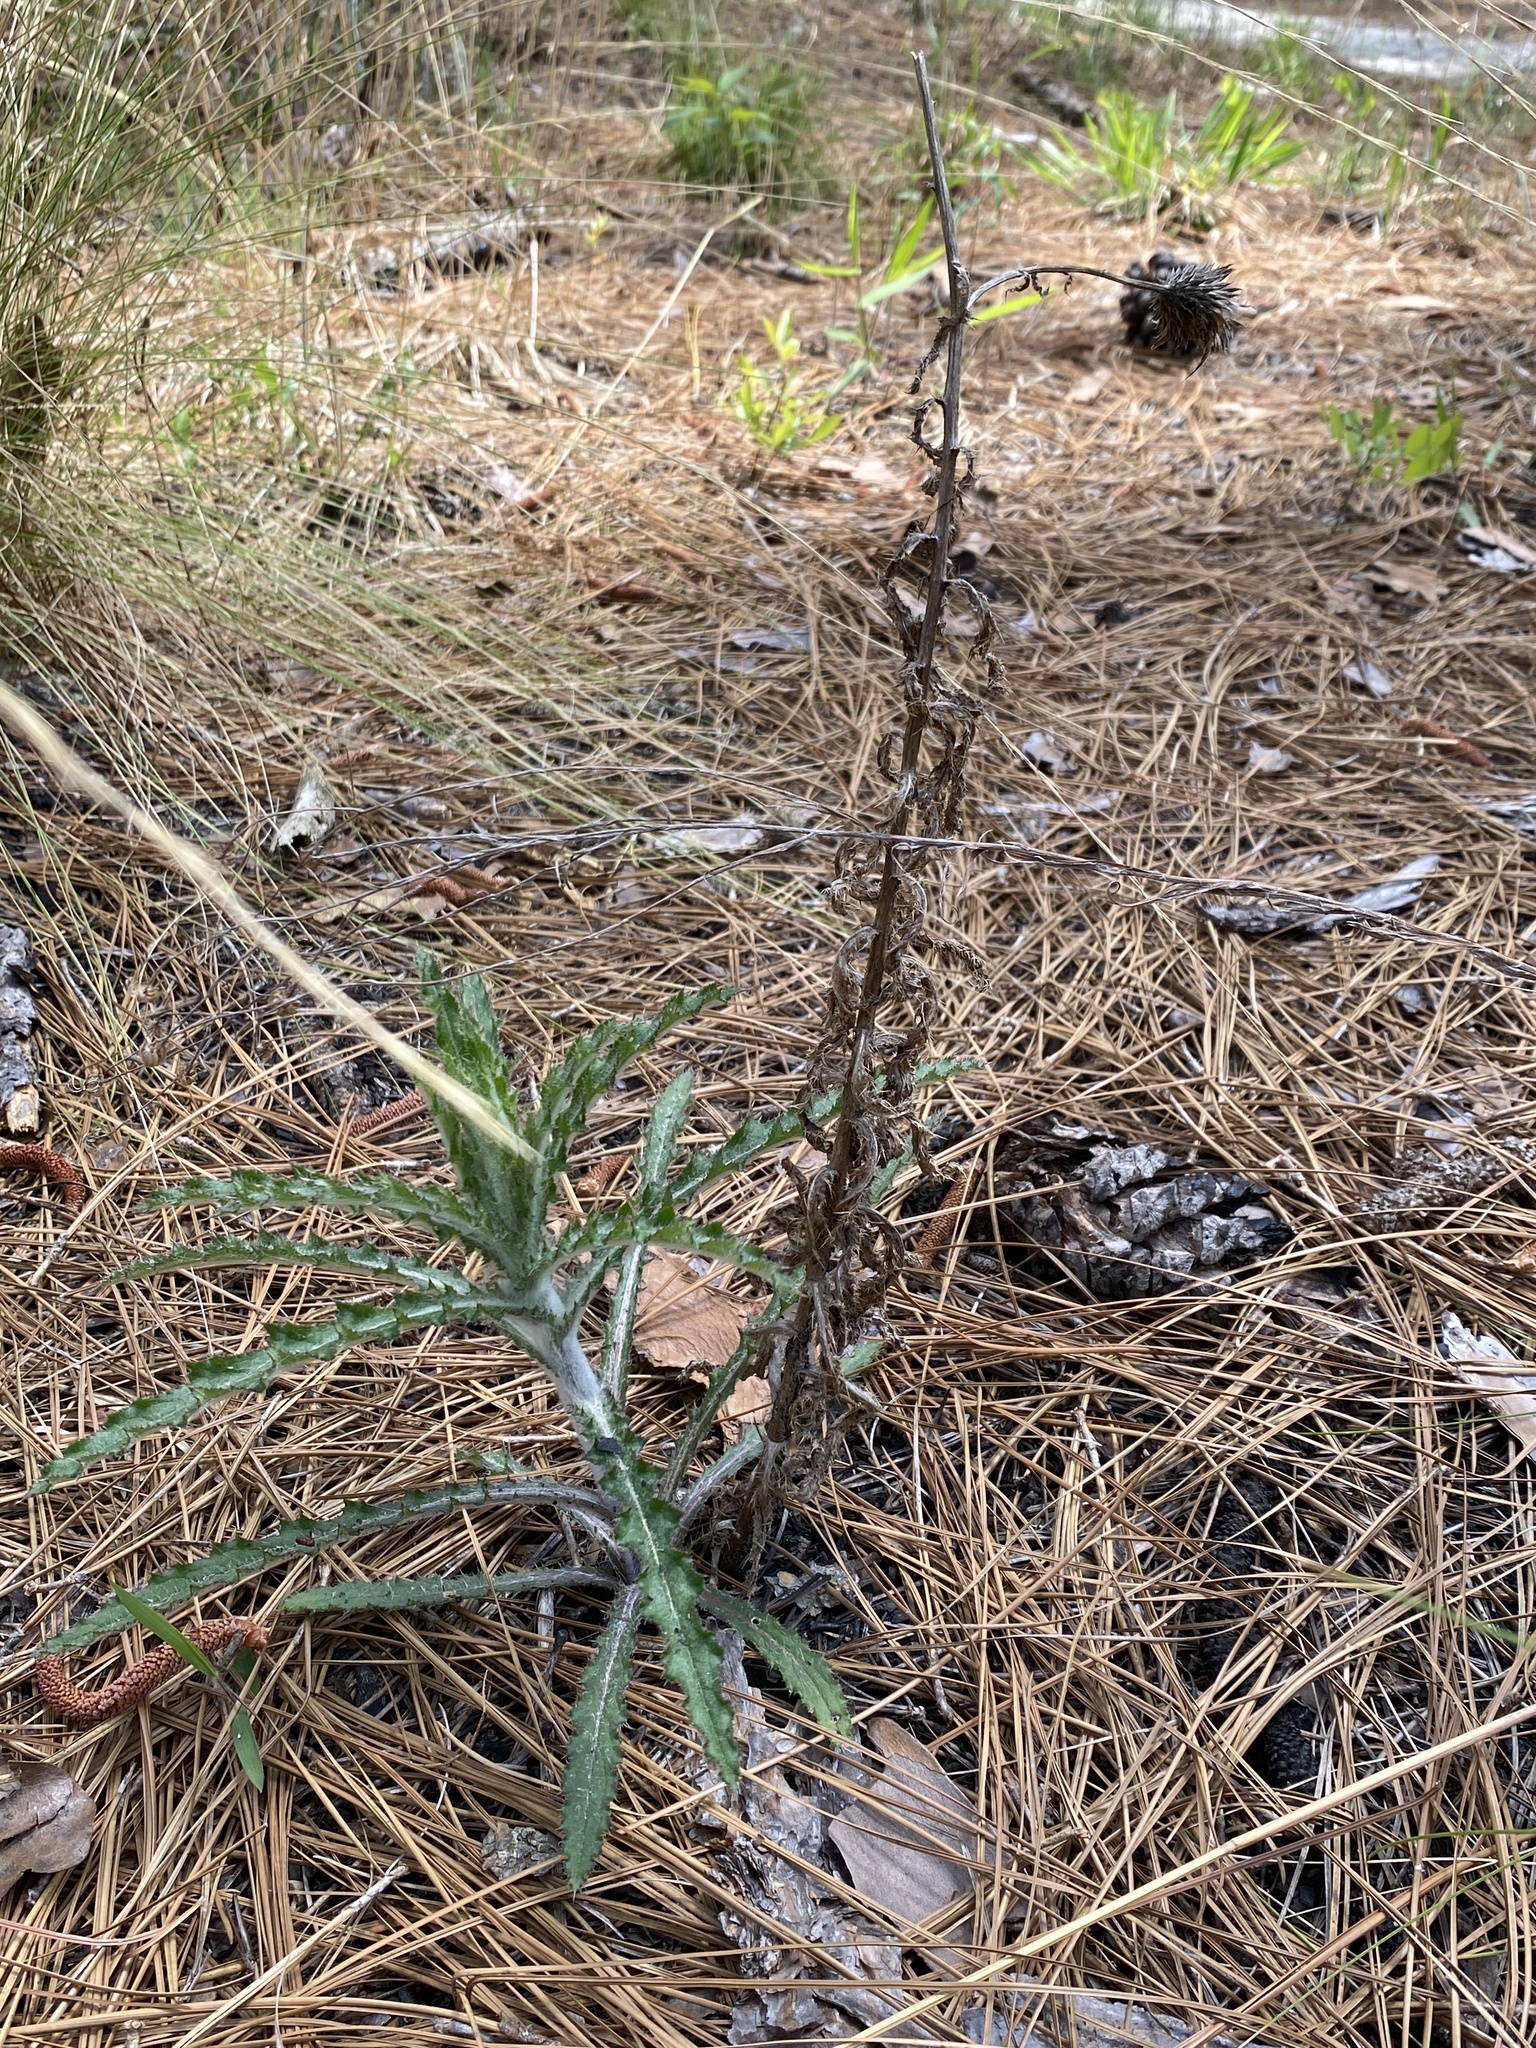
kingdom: Plantae
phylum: Tracheophyta
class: Magnoliopsida
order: Asterales
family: Asteraceae
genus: Cirsium
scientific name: Cirsium repandum
